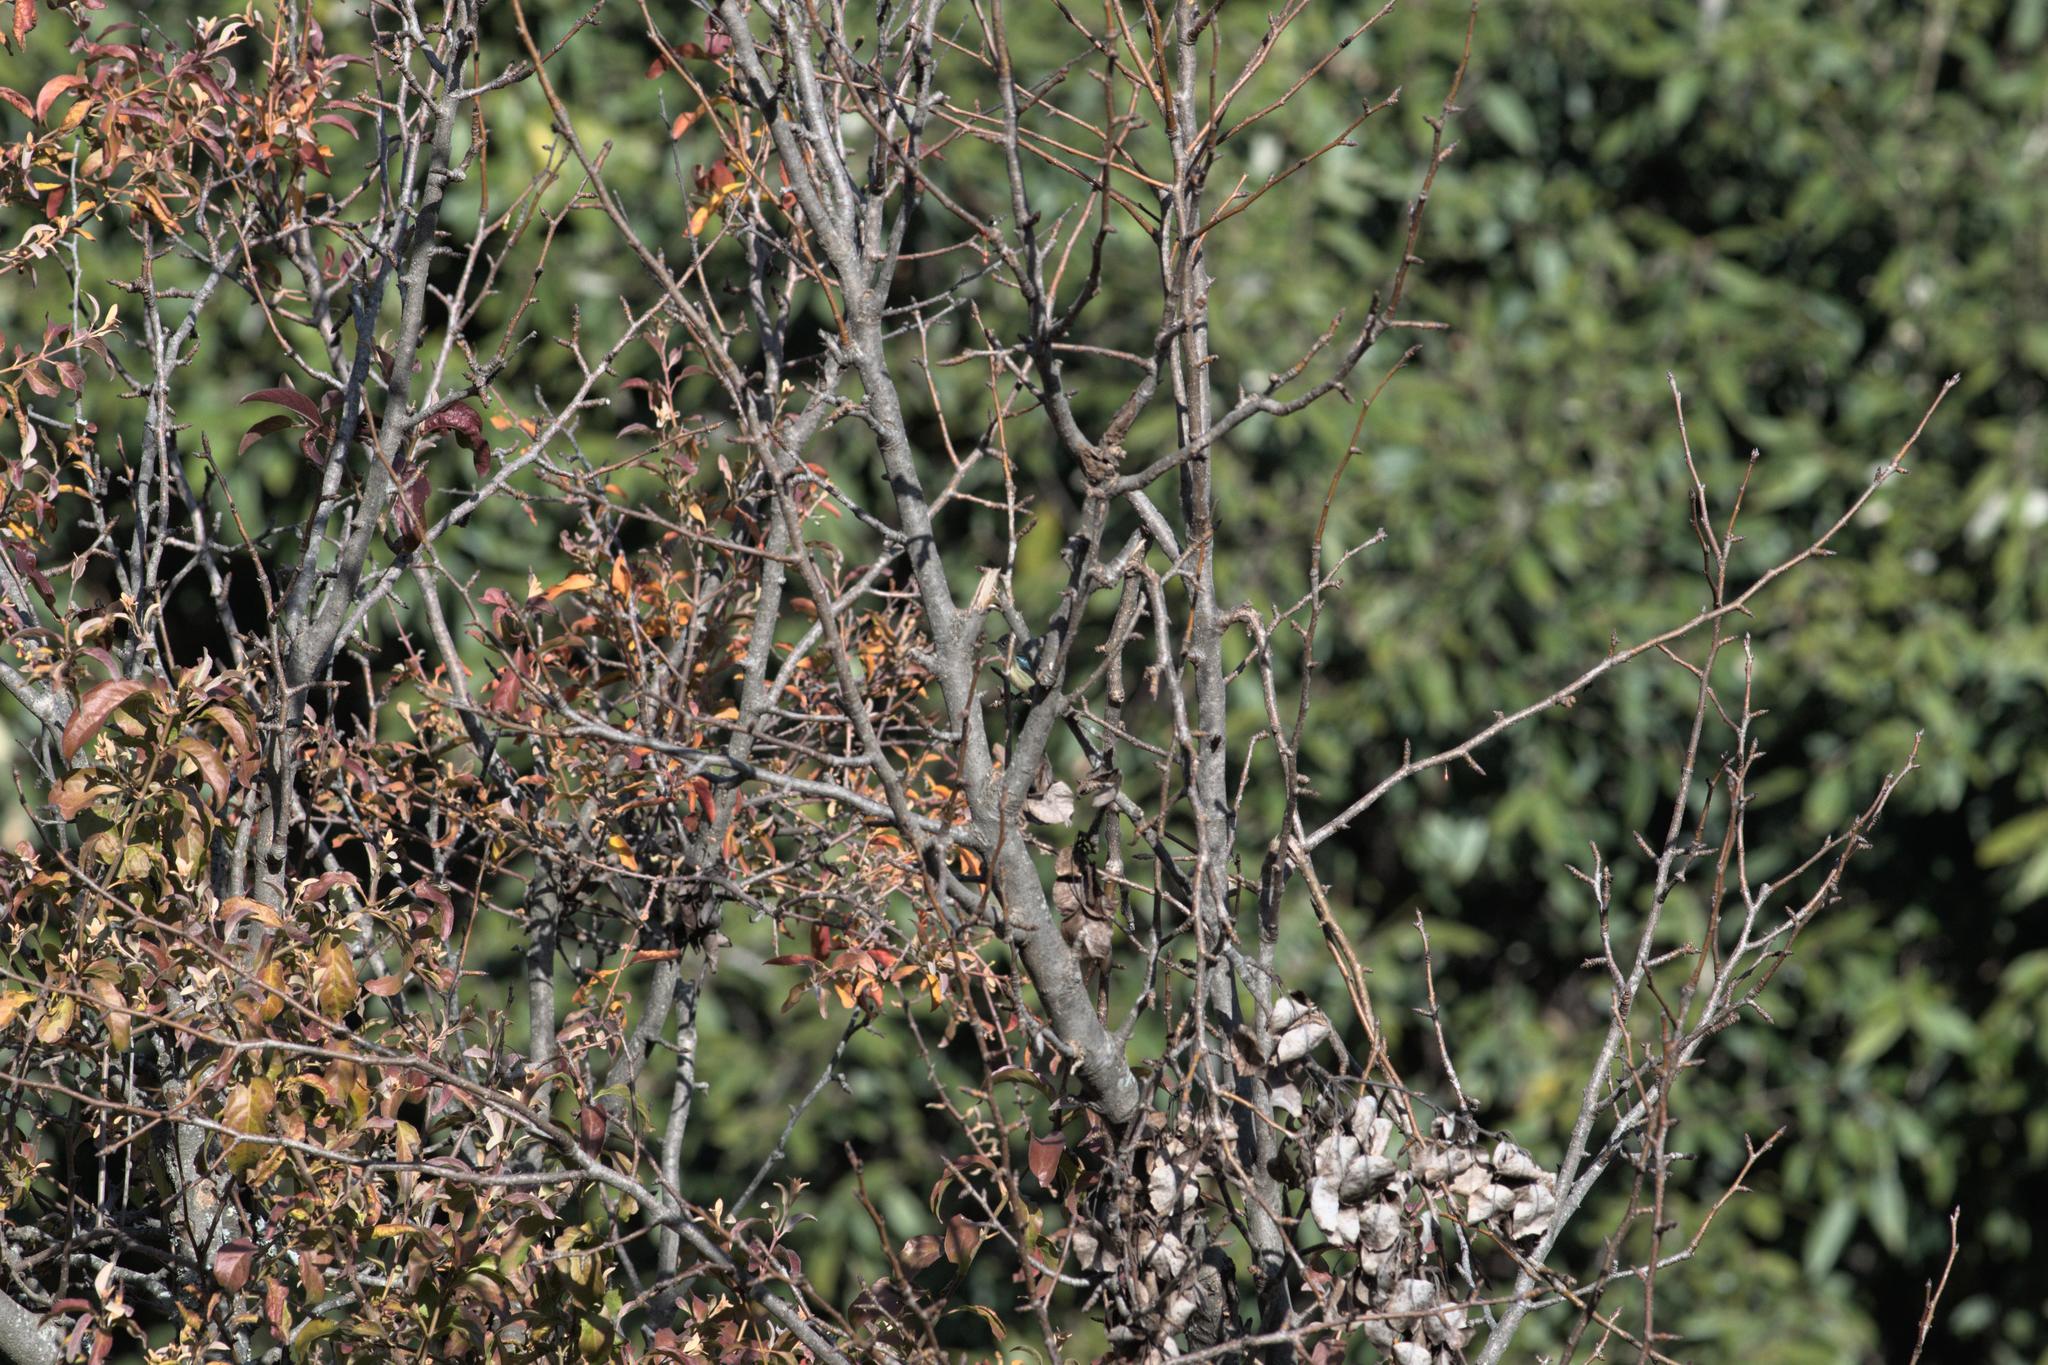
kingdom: Animalia
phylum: Chordata
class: Aves
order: Passeriformes
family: Dicaeidae
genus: Dicaeum
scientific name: Dicaeum ignipectus
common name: Fire-breasted flowerpecker
